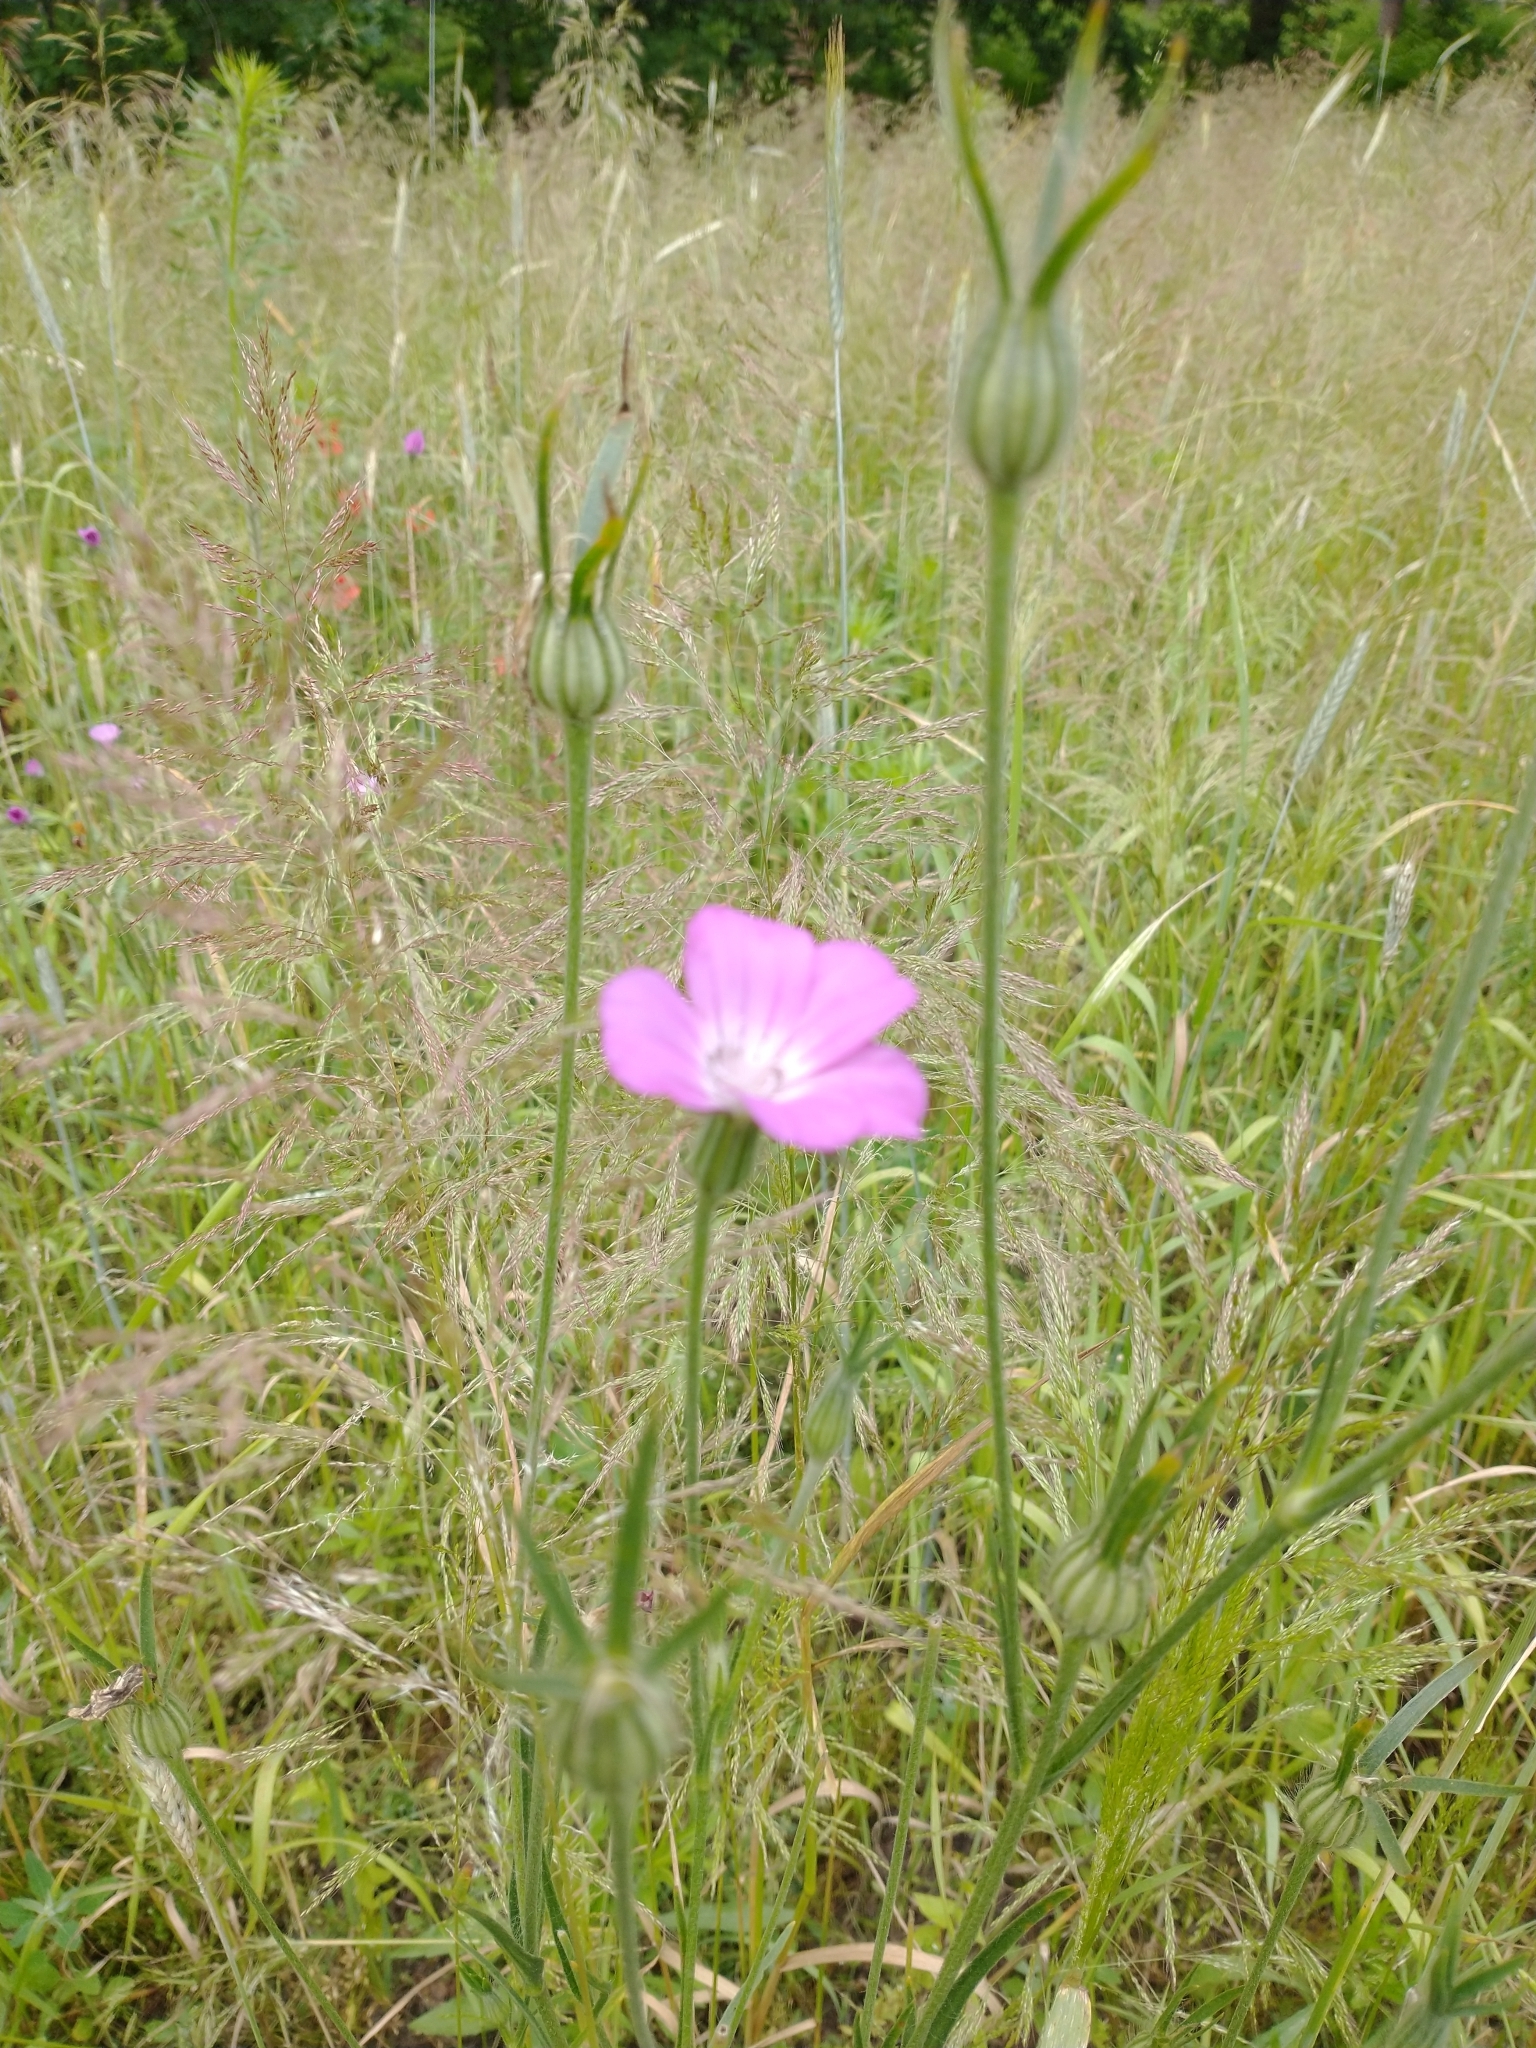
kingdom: Plantae
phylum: Tracheophyta
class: Magnoliopsida
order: Caryophyllales
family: Caryophyllaceae
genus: Agrostemma
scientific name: Agrostemma githago
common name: Common corncockle
